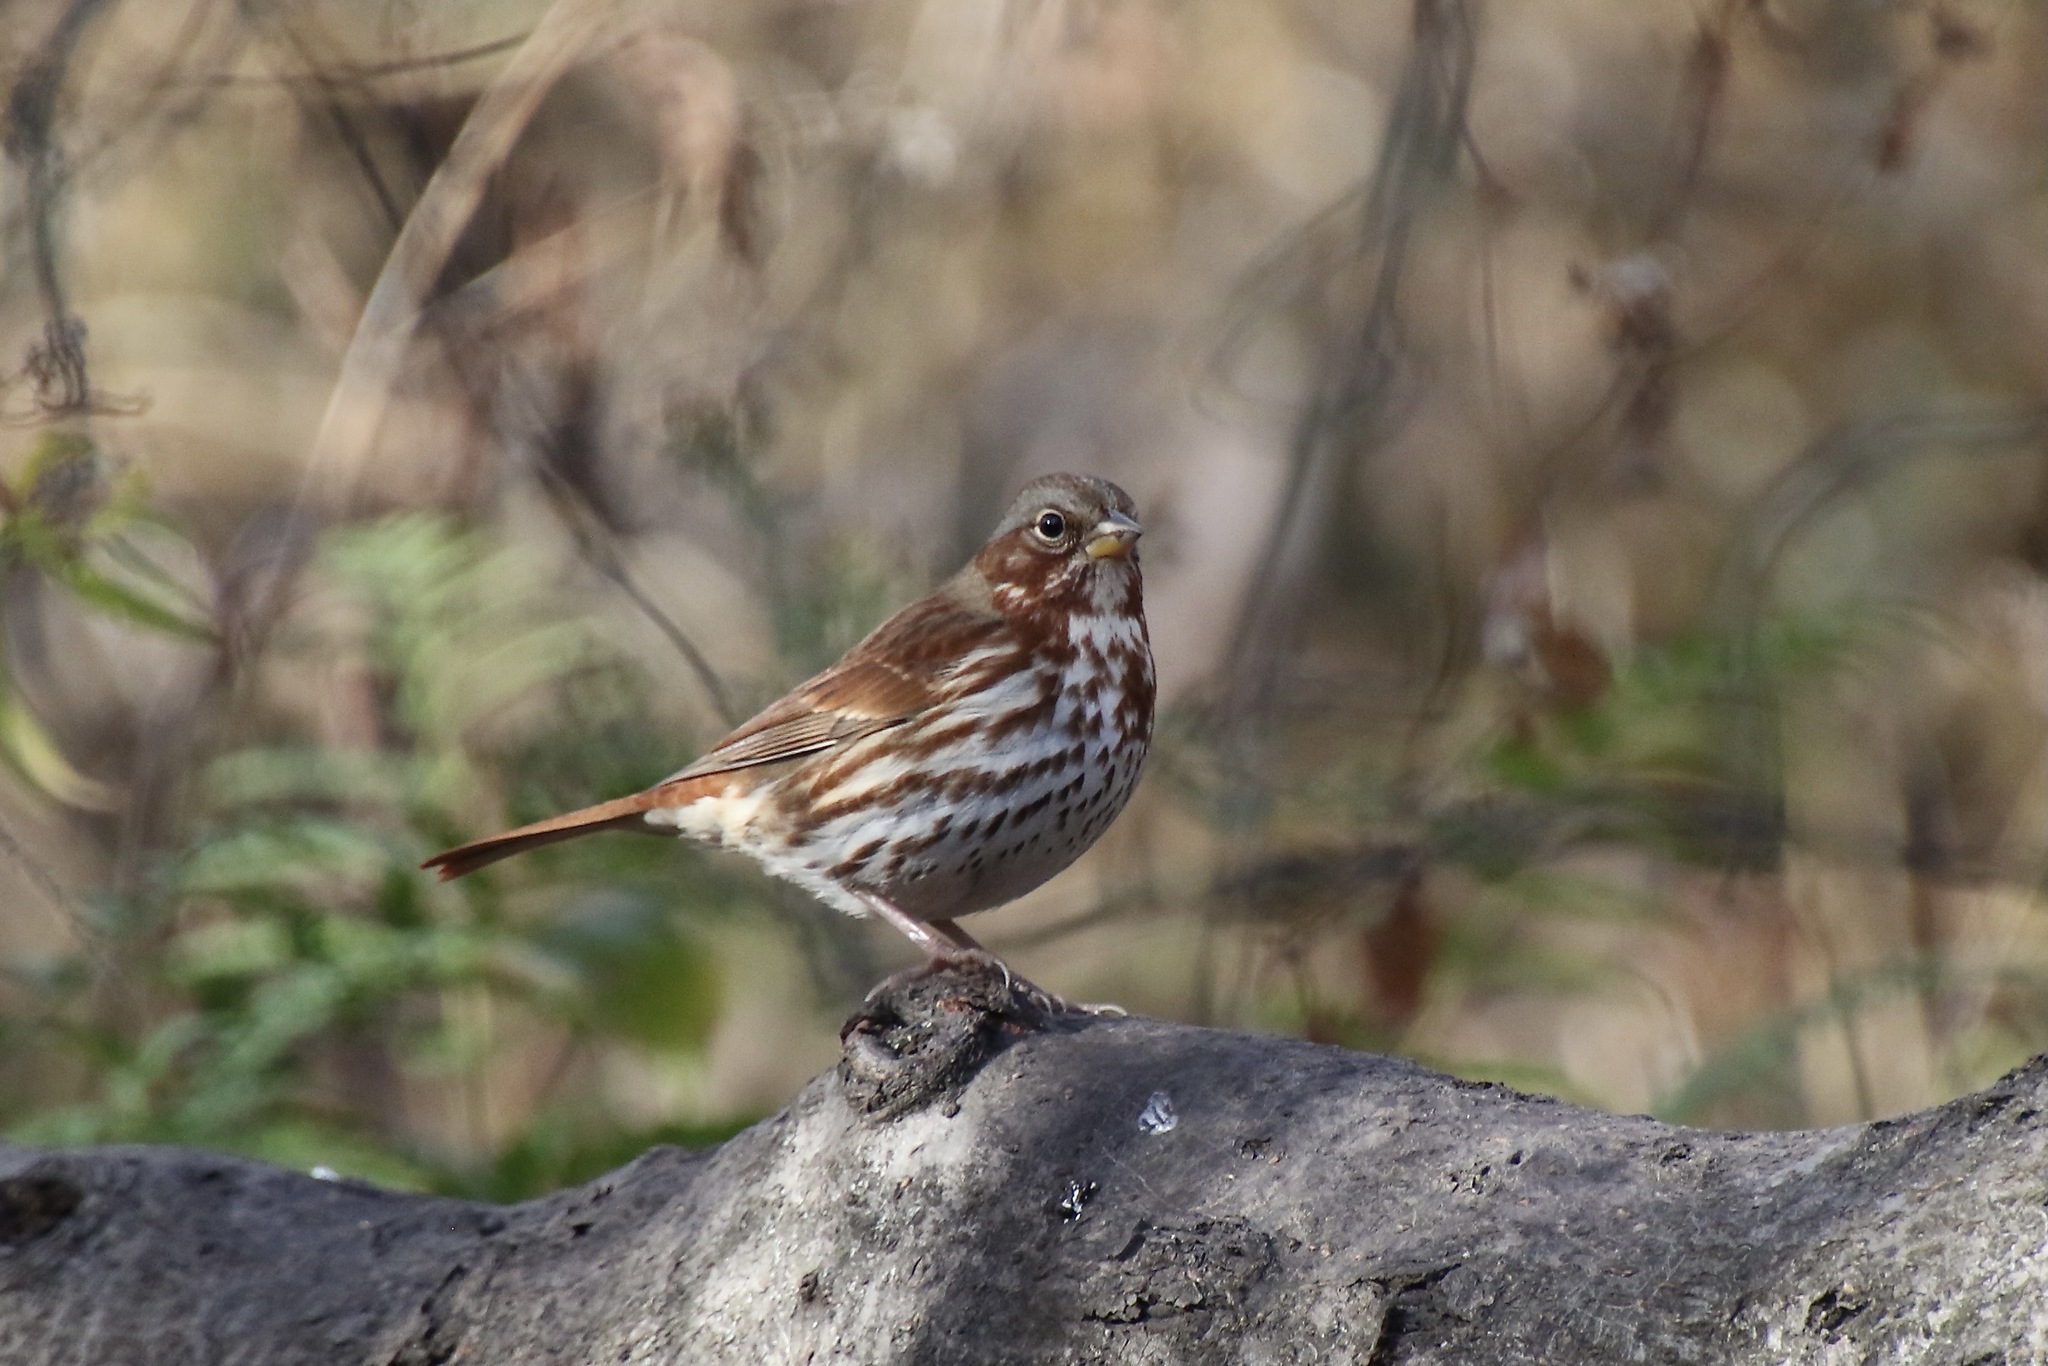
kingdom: Animalia
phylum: Chordata
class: Aves
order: Passeriformes
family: Passerellidae
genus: Passerella
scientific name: Passerella iliaca
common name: Fox sparrow
